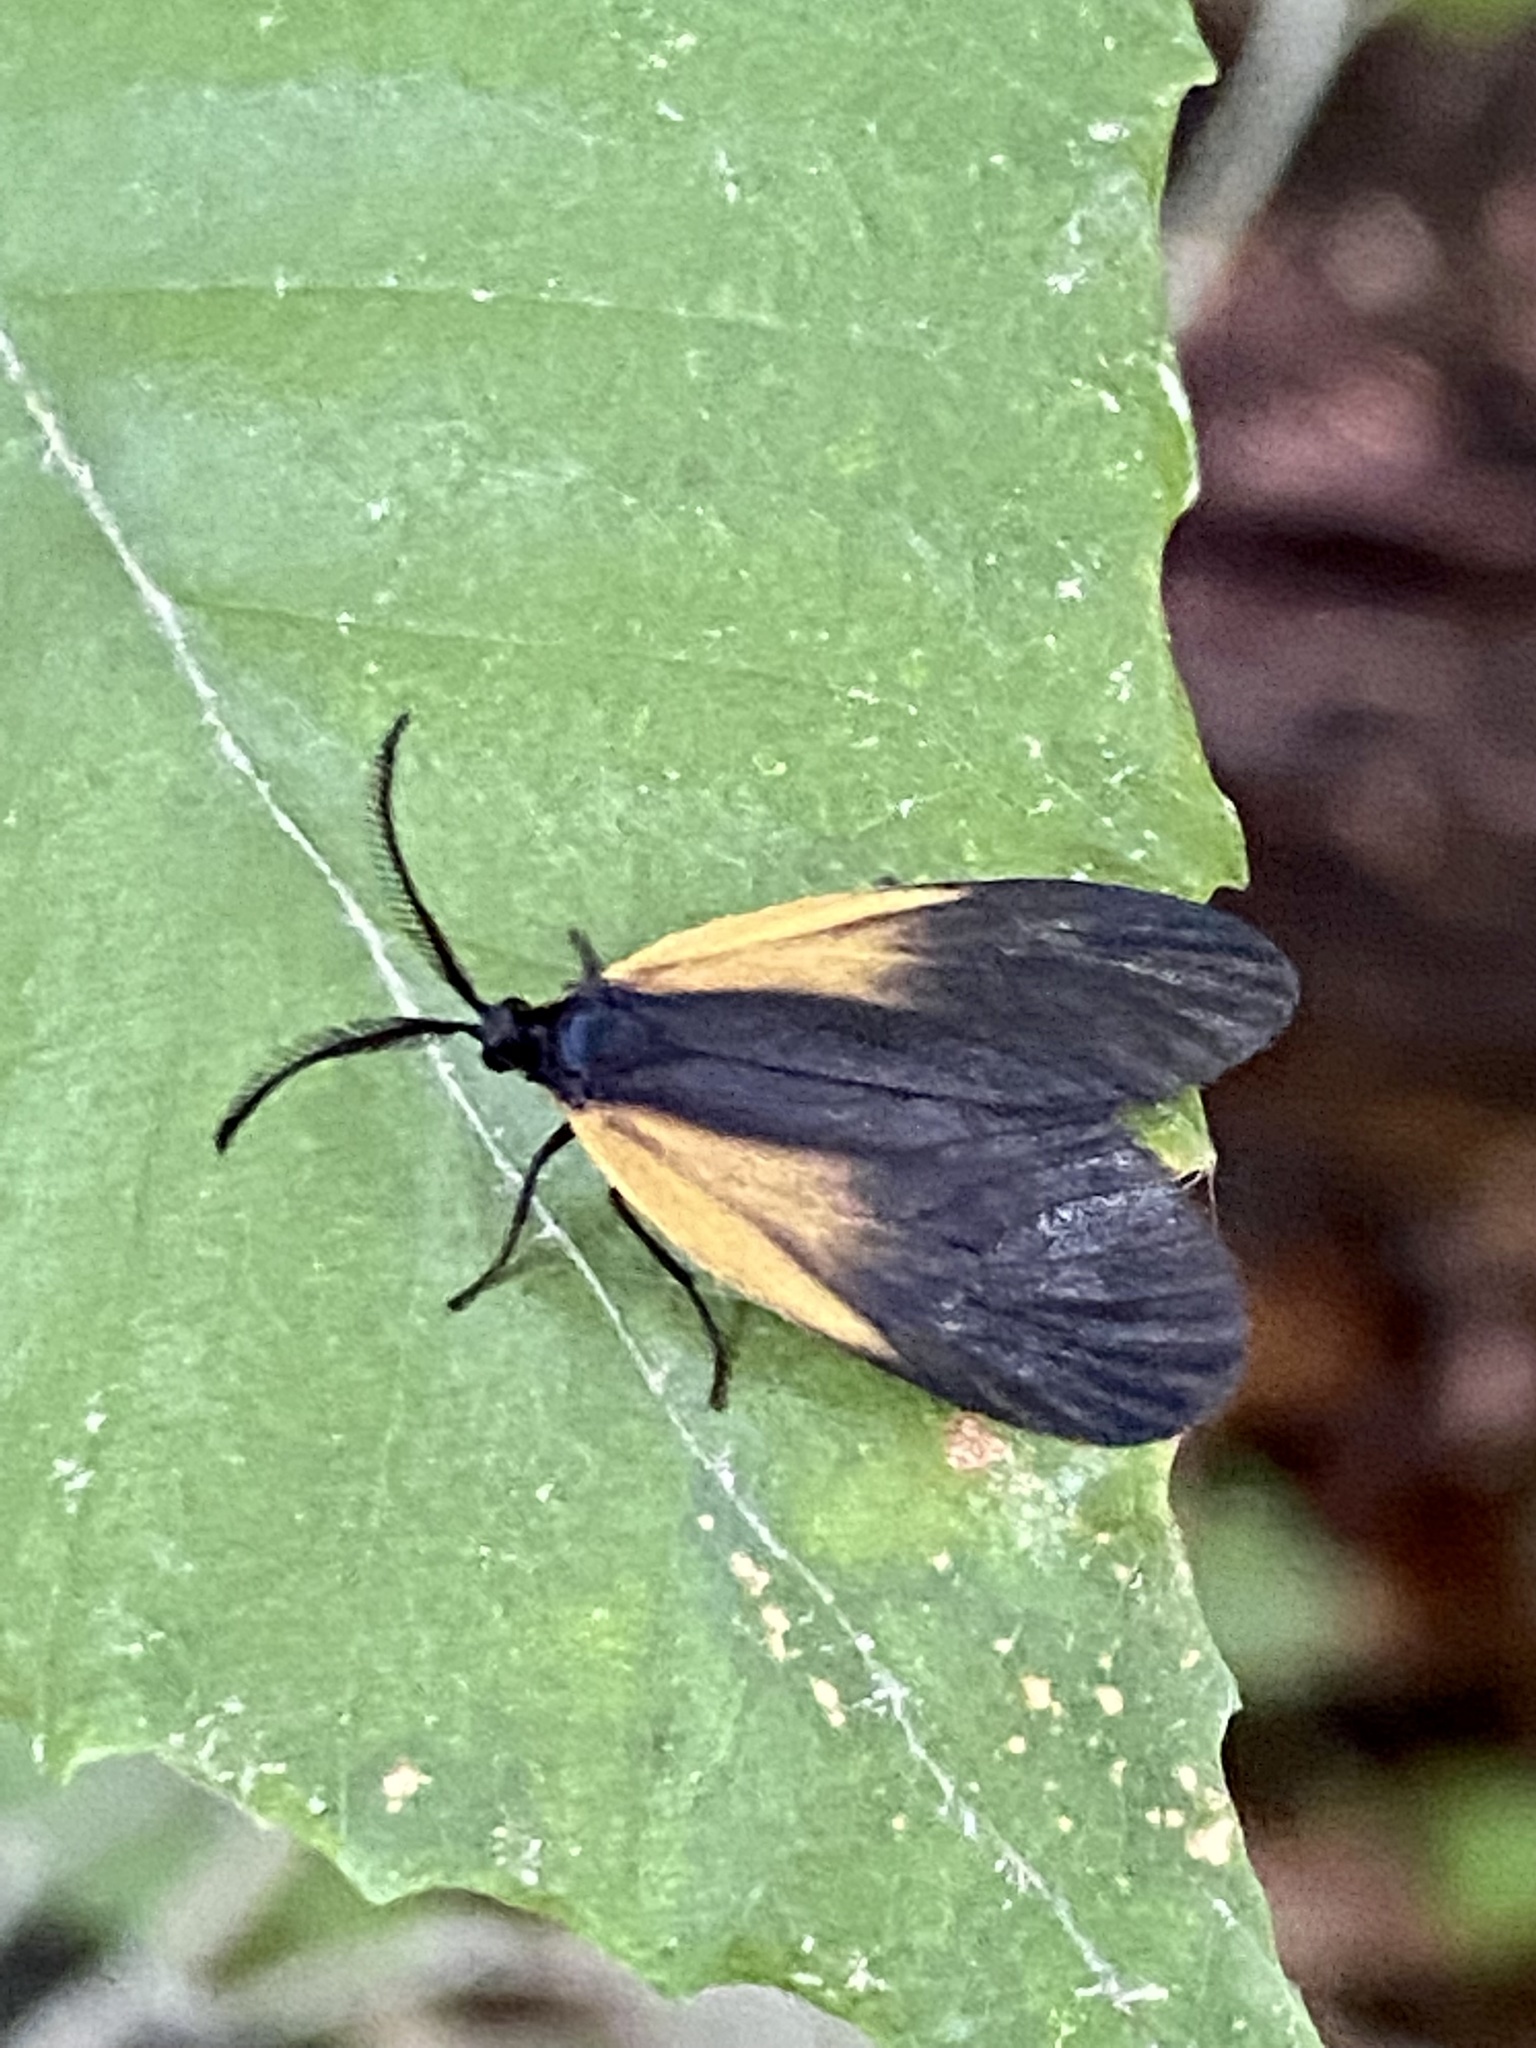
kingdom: Animalia
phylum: Arthropoda
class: Insecta
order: Lepidoptera
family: Zygaenidae
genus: Malthaca
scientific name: Malthaca dimidiata
